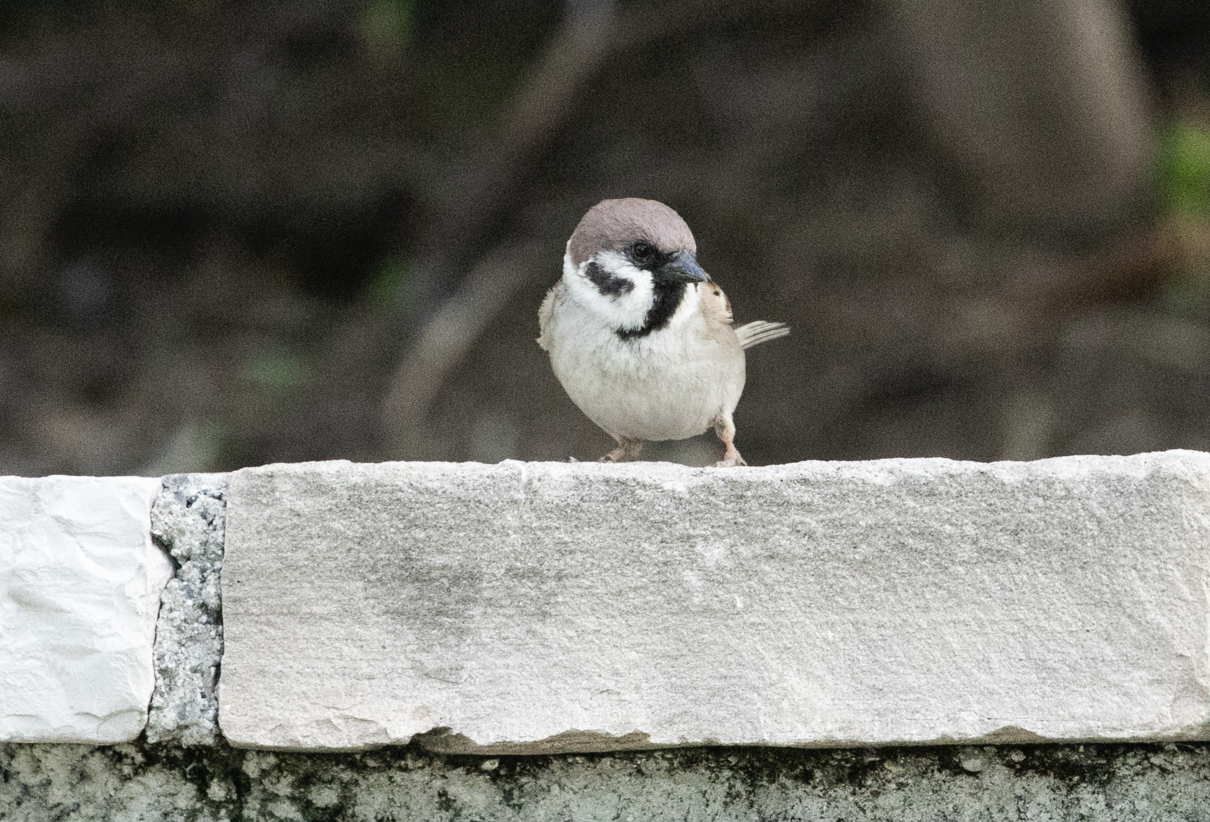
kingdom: Animalia
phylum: Chordata
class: Aves
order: Passeriformes
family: Passeridae
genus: Passer
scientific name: Passer montanus
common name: Eurasian tree sparrow
